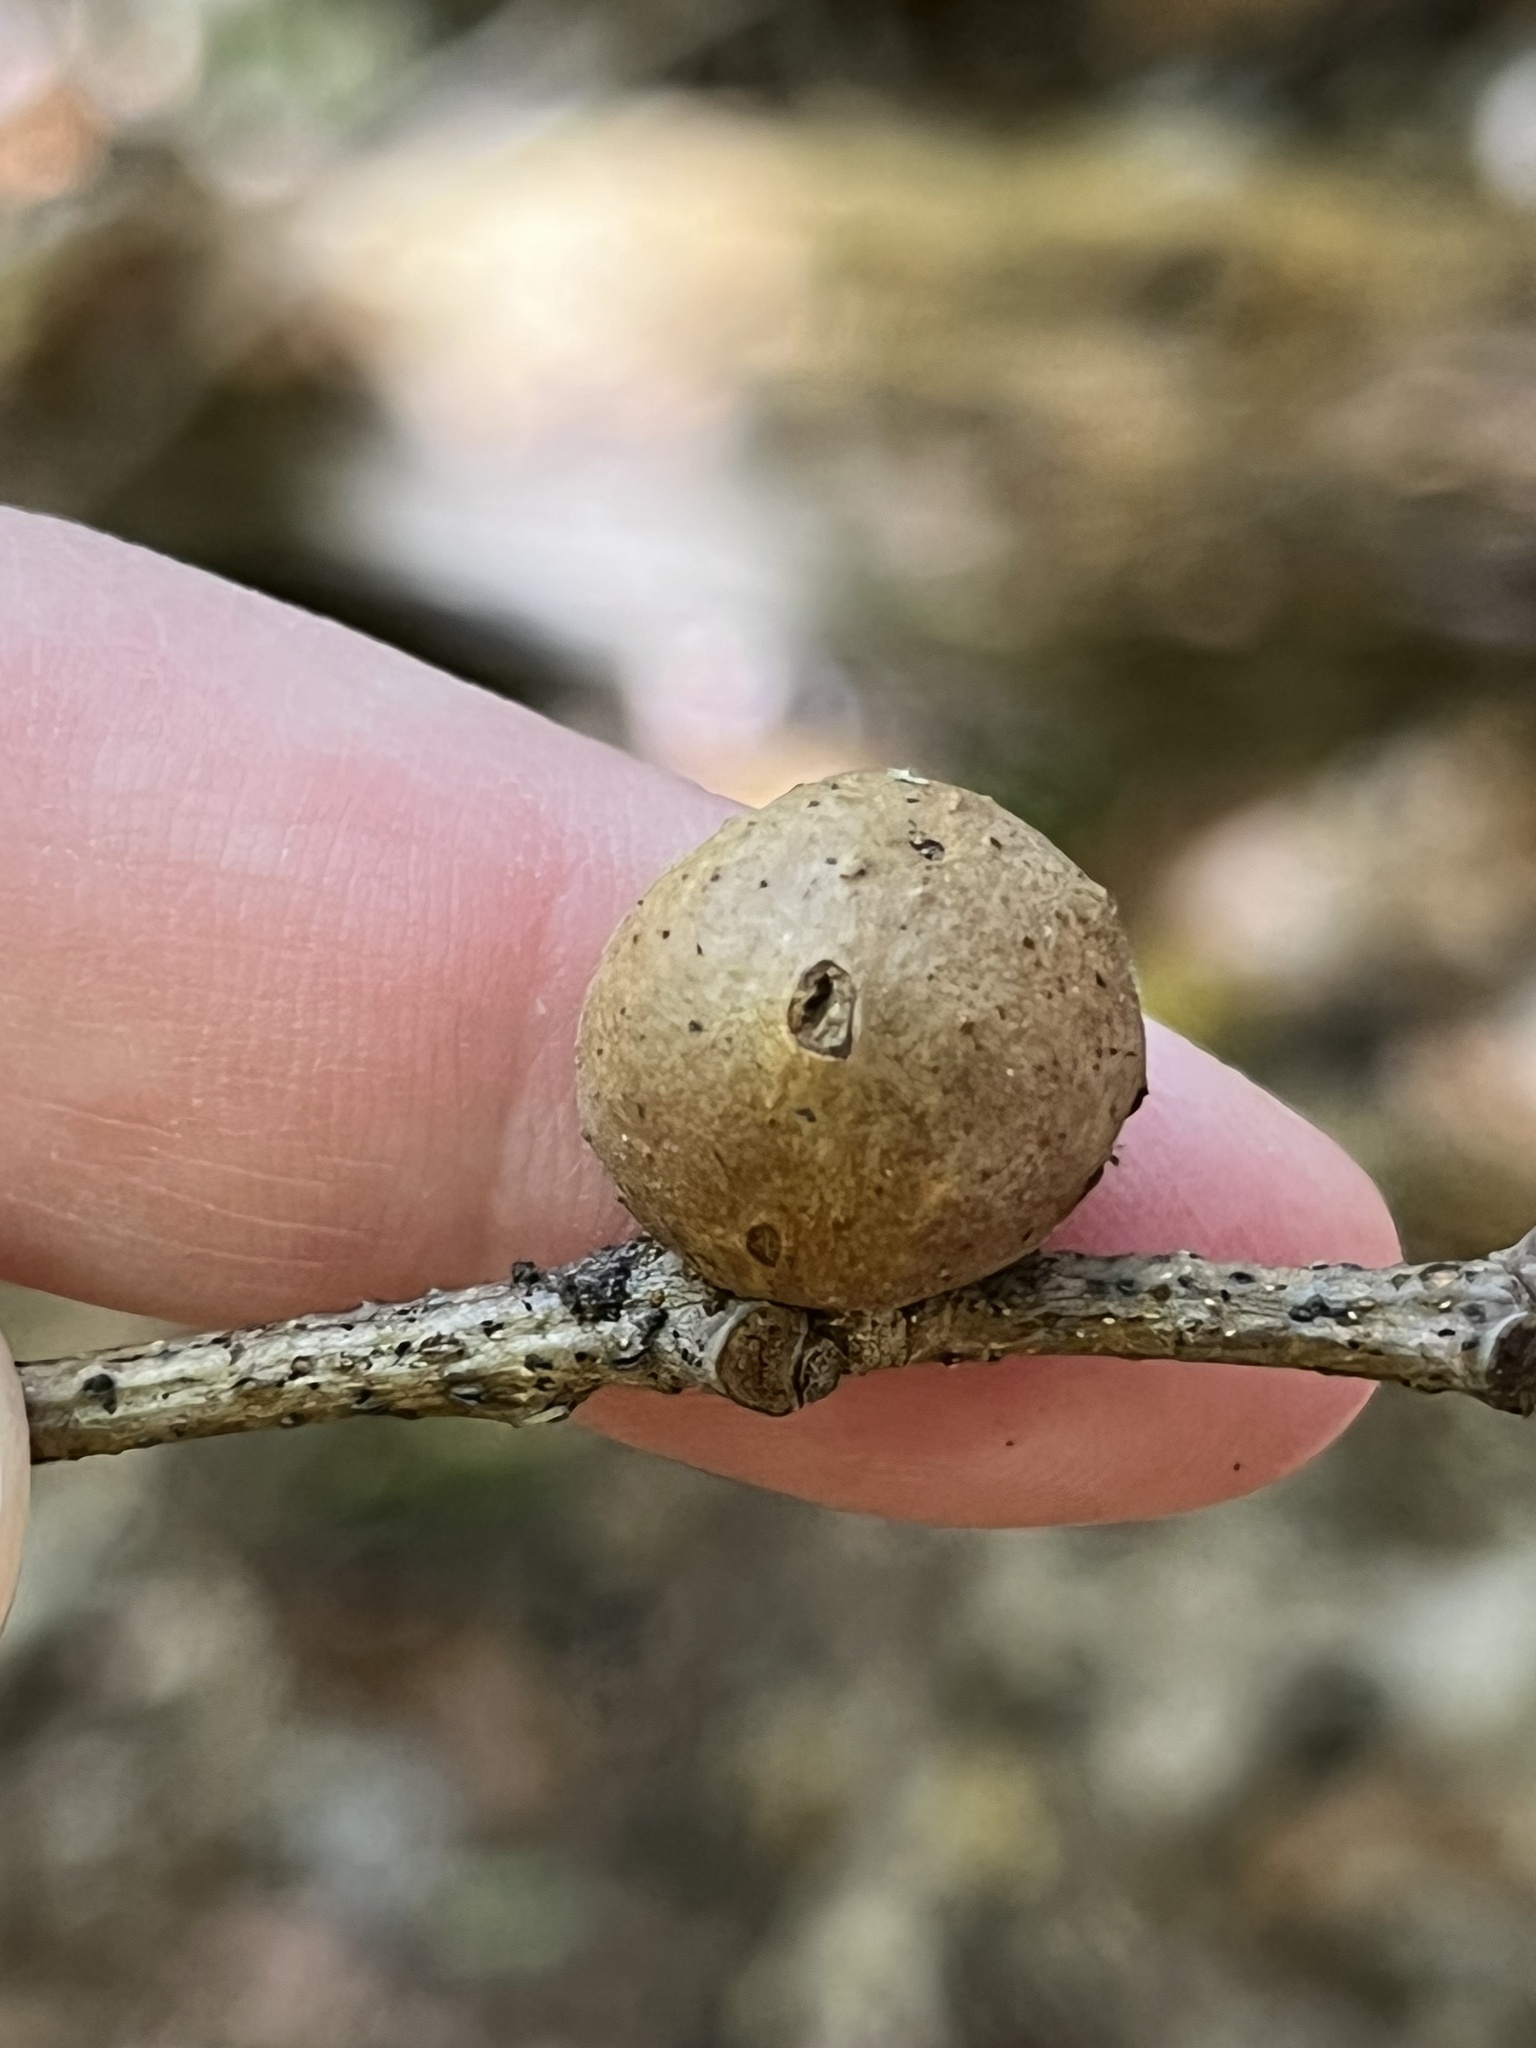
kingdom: Animalia
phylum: Arthropoda
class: Insecta
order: Hymenoptera
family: Cynipidae
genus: Disholcaspis
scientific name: Disholcaspis quercusglobulus
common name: Round bullet gall wasp
